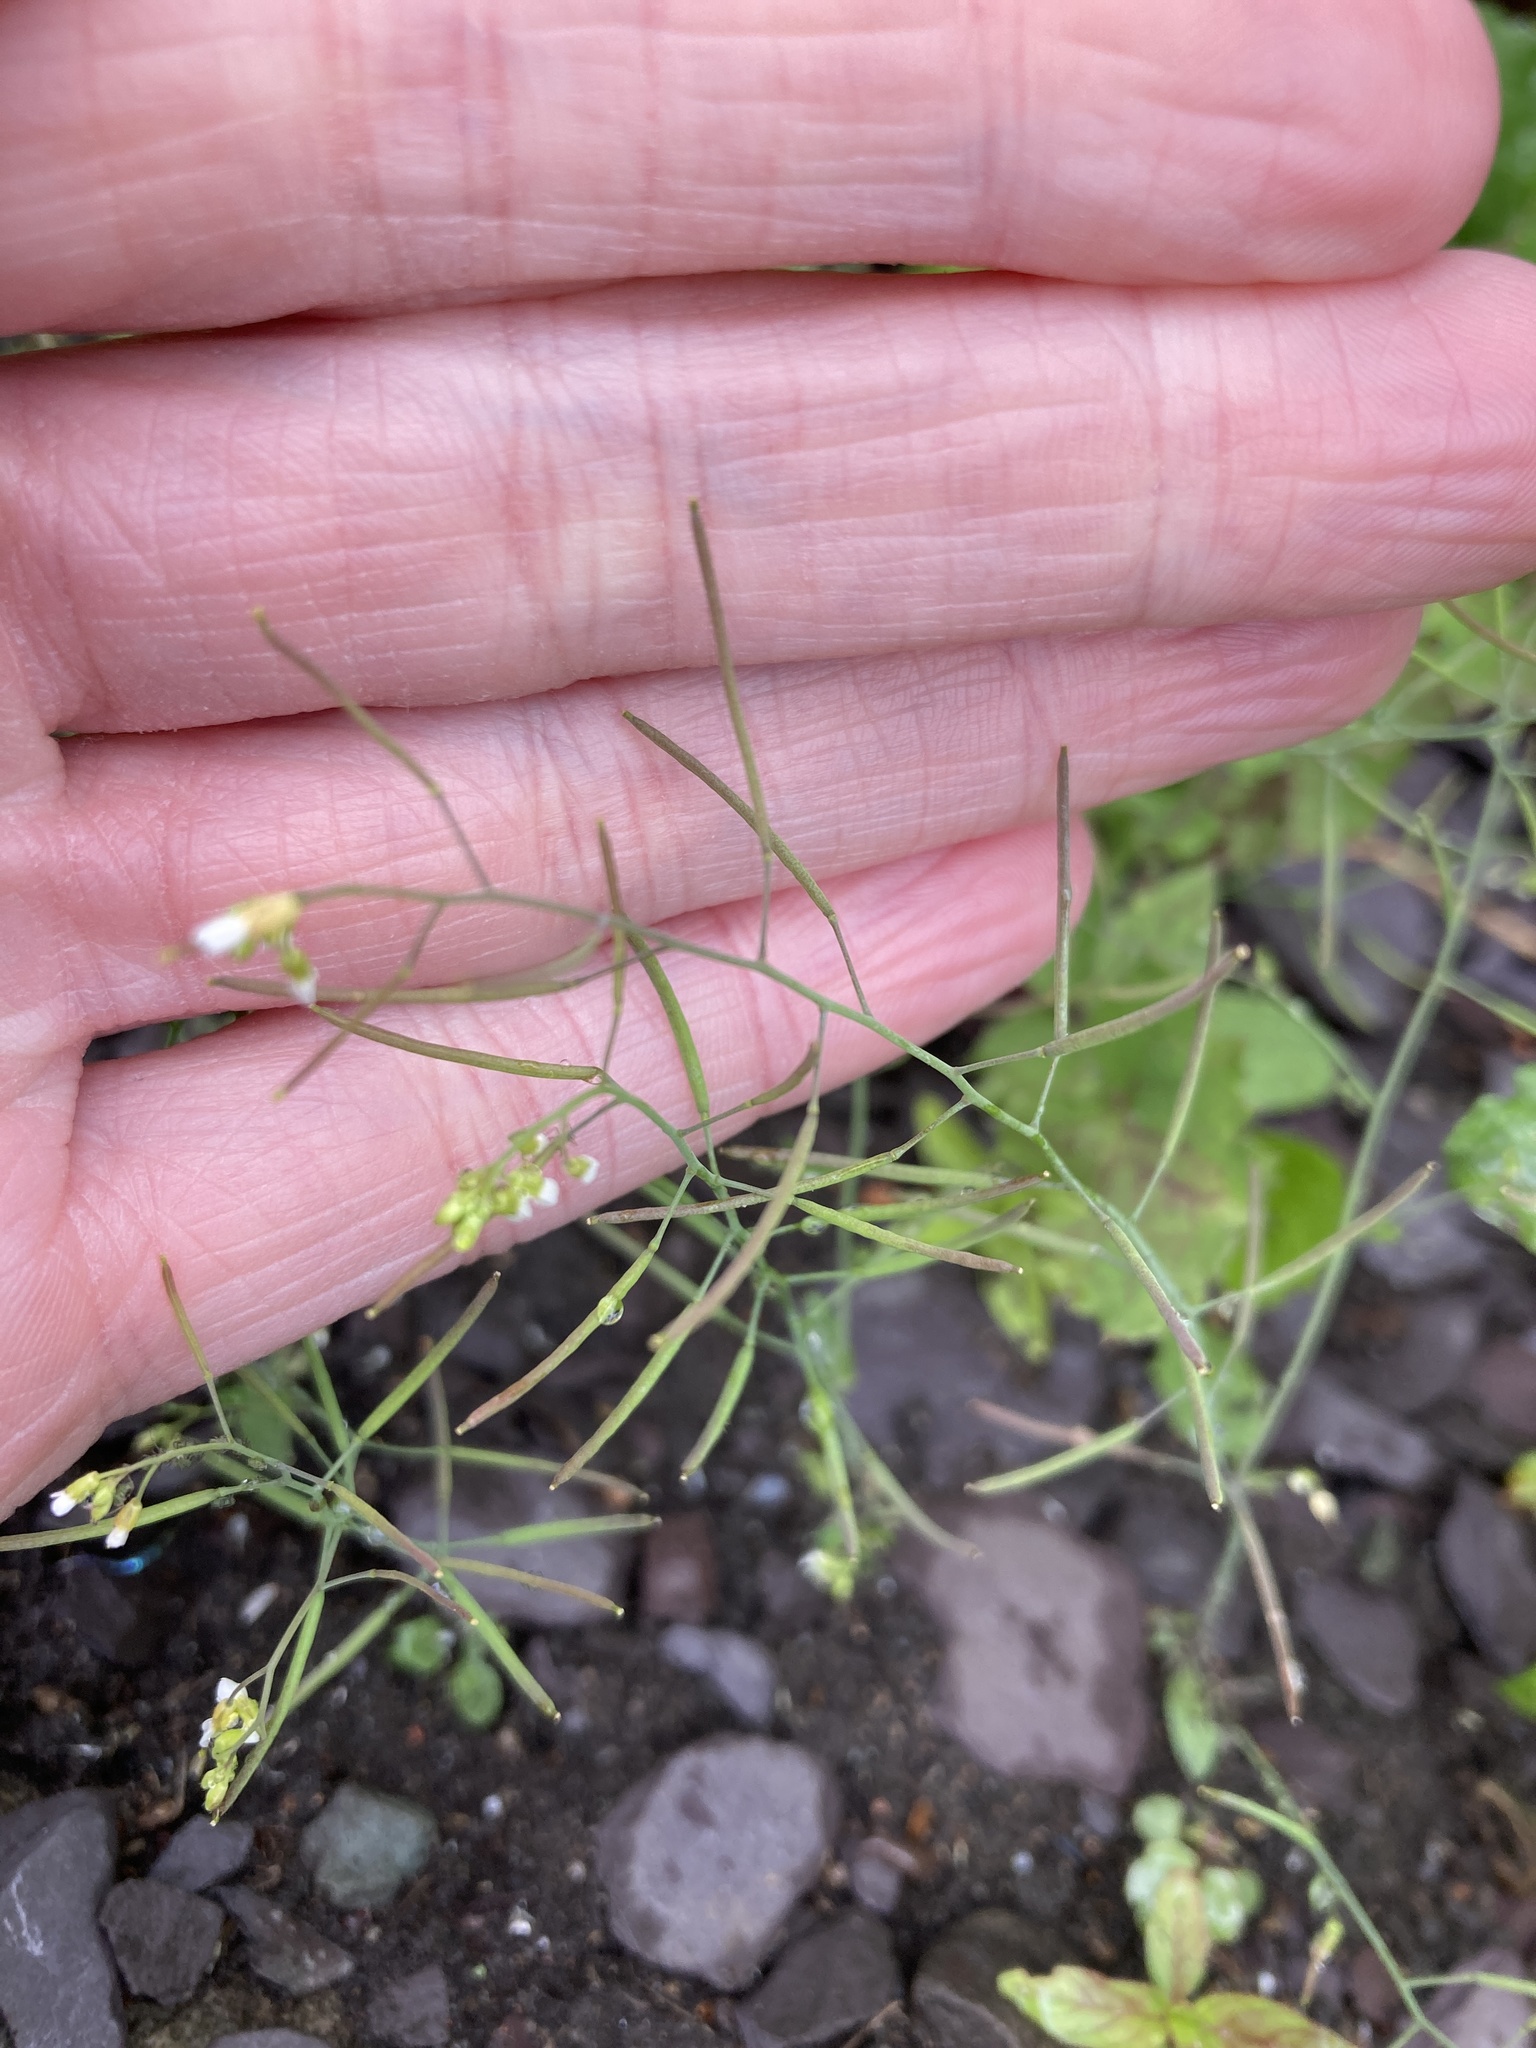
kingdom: Plantae
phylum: Tracheophyta
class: Magnoliopsida
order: Brassicales
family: Brassicaceae
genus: Arabidopsis
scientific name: Arabidopsis thaliana
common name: Thale cress
